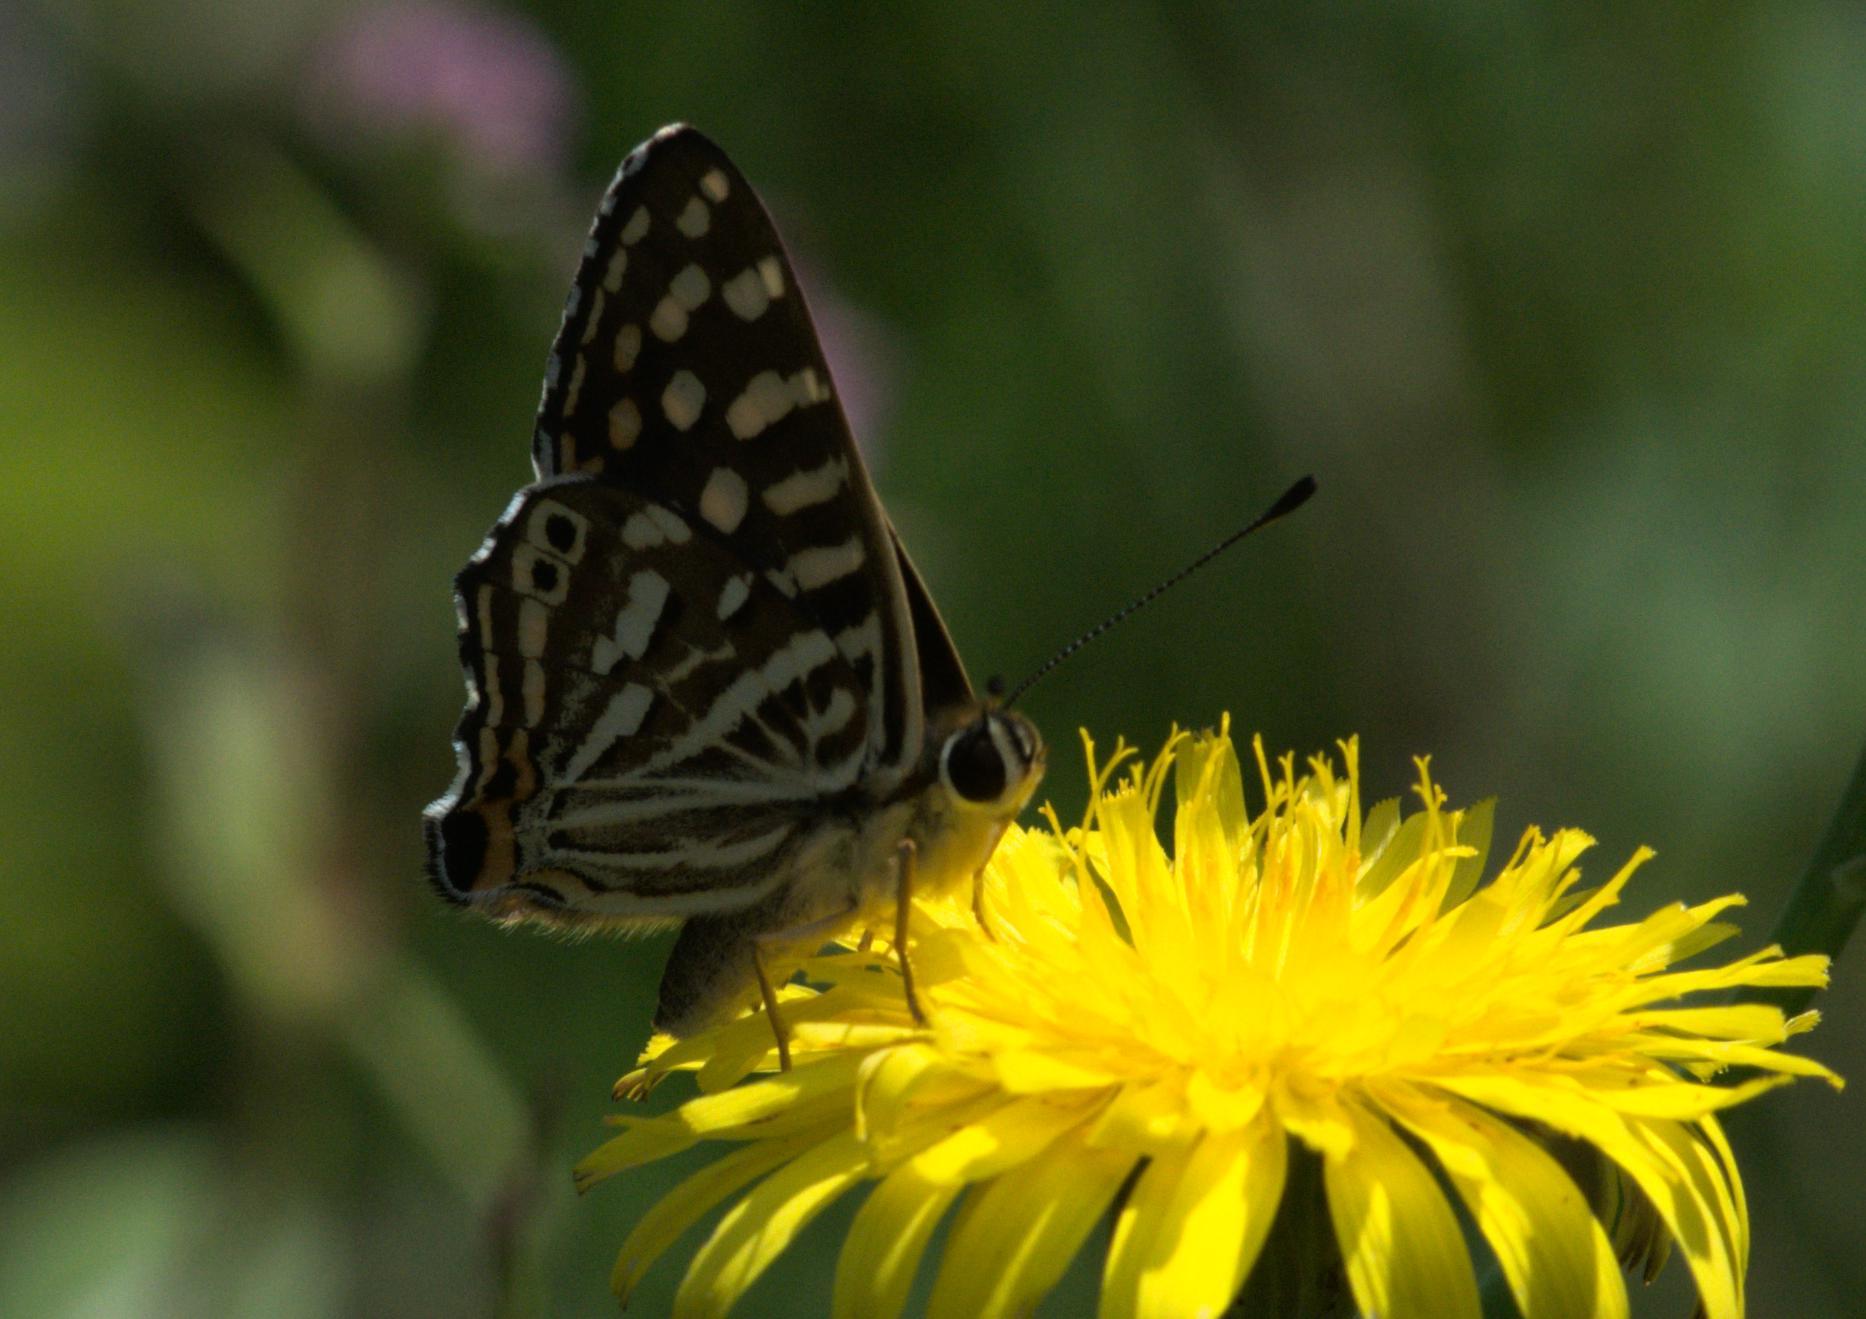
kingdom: Animalia
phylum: Arthropoda
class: Insecta
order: Lepidoptera
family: Lycaenidae
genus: Dodona
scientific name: Dodona durga
